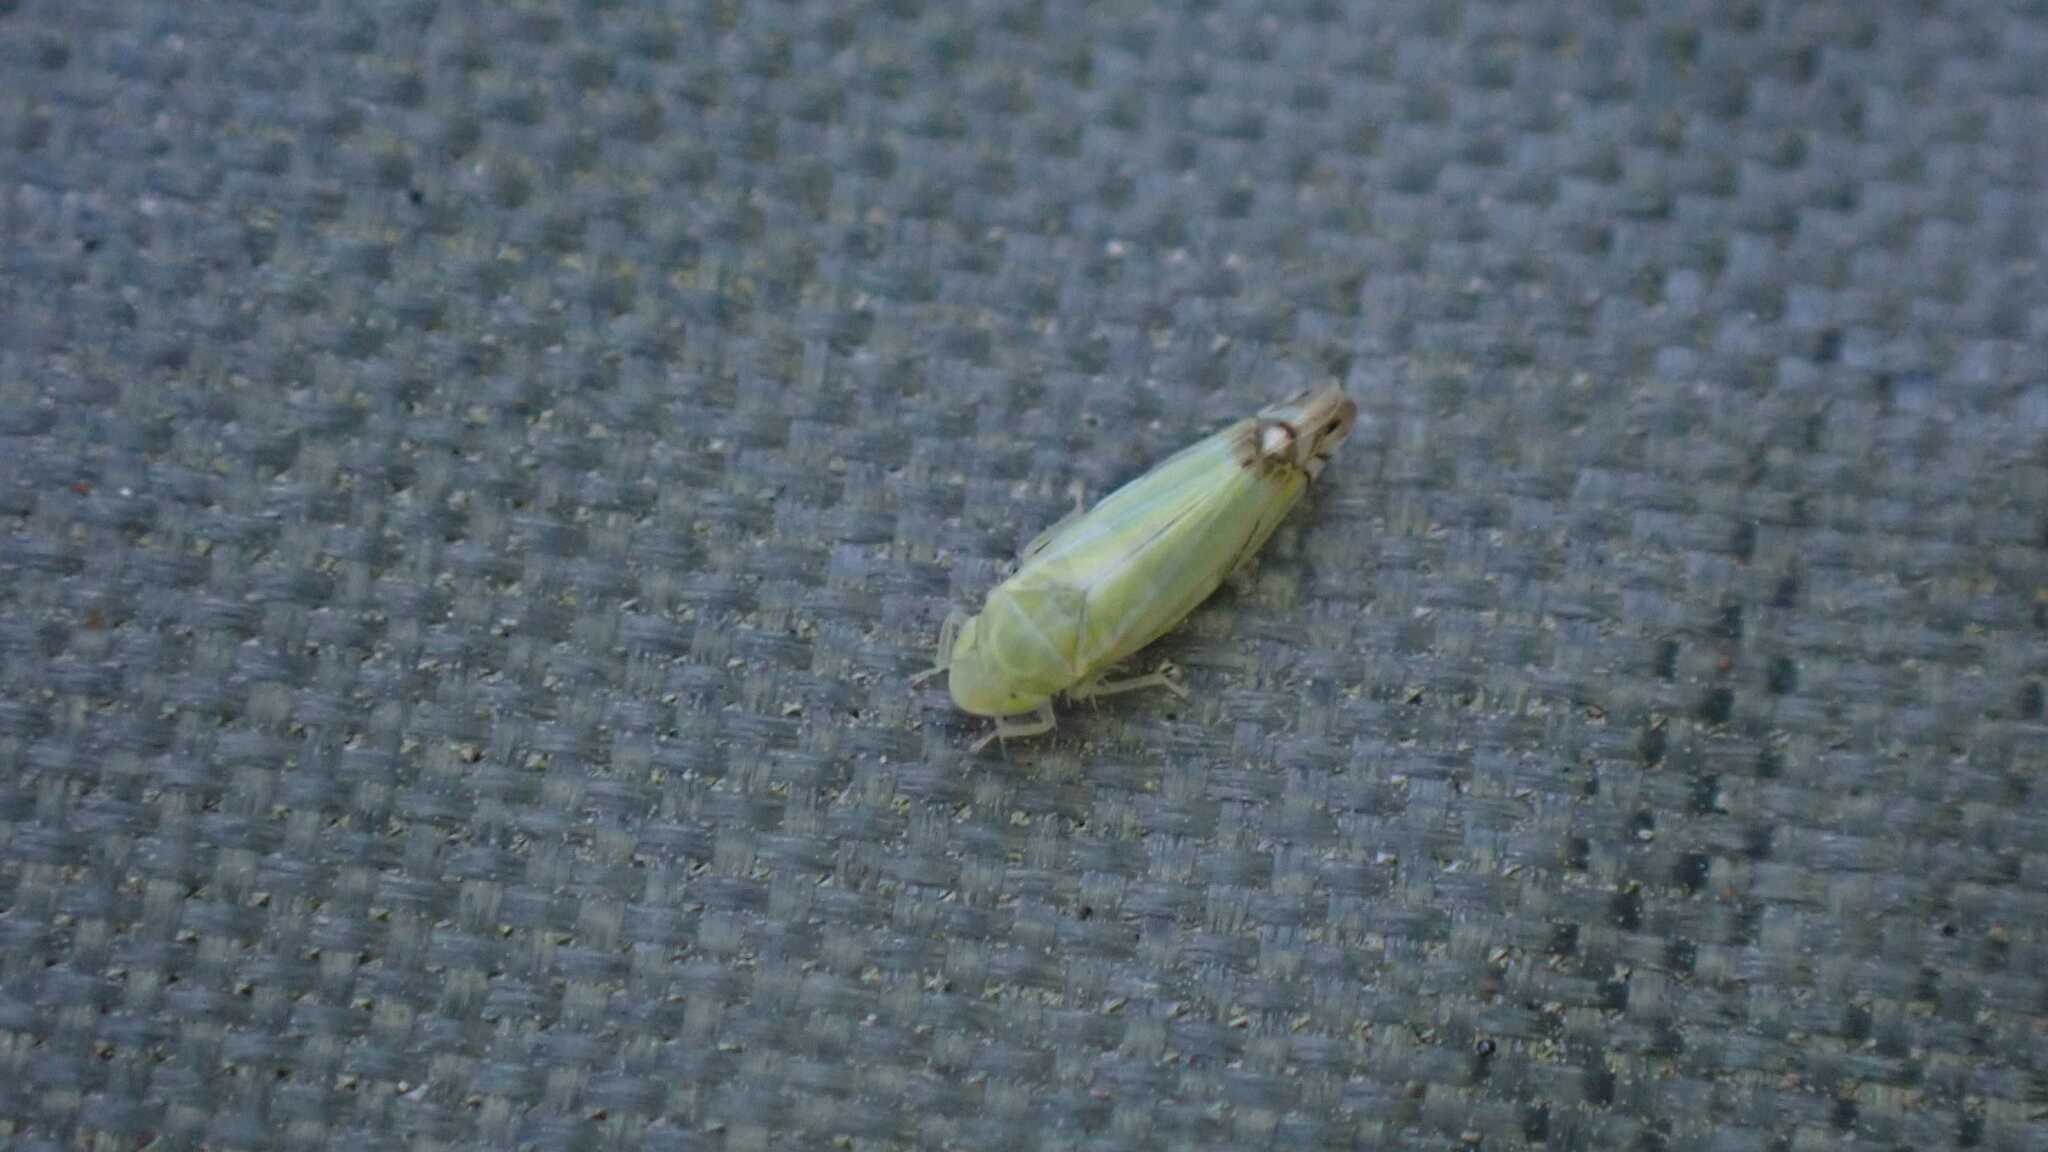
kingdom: Animalia
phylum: Arthropoda
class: Insecta
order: Hemiptera
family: Cicadellidae
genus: Zyginella
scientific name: Zyginella pulchra
